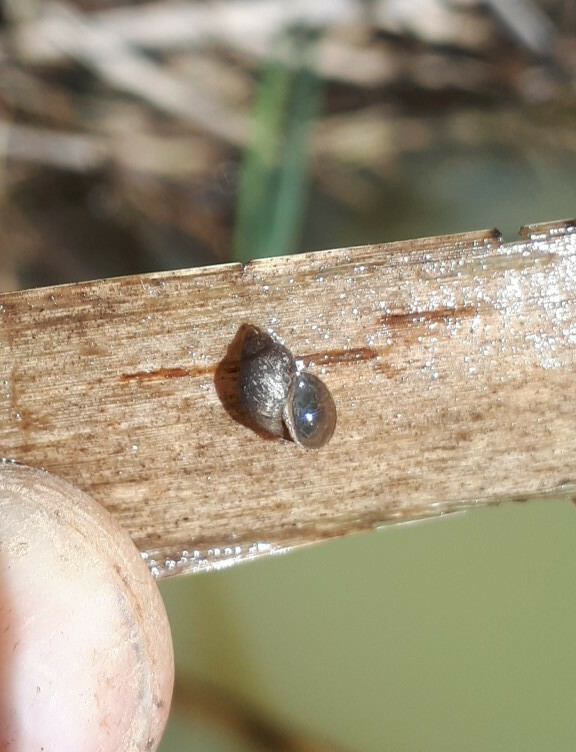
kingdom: Animalia
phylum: Mollusca
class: Gastropoda
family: Lymnaeidae
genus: Galba
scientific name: Galba truncatula
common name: Dwarf pond snail
